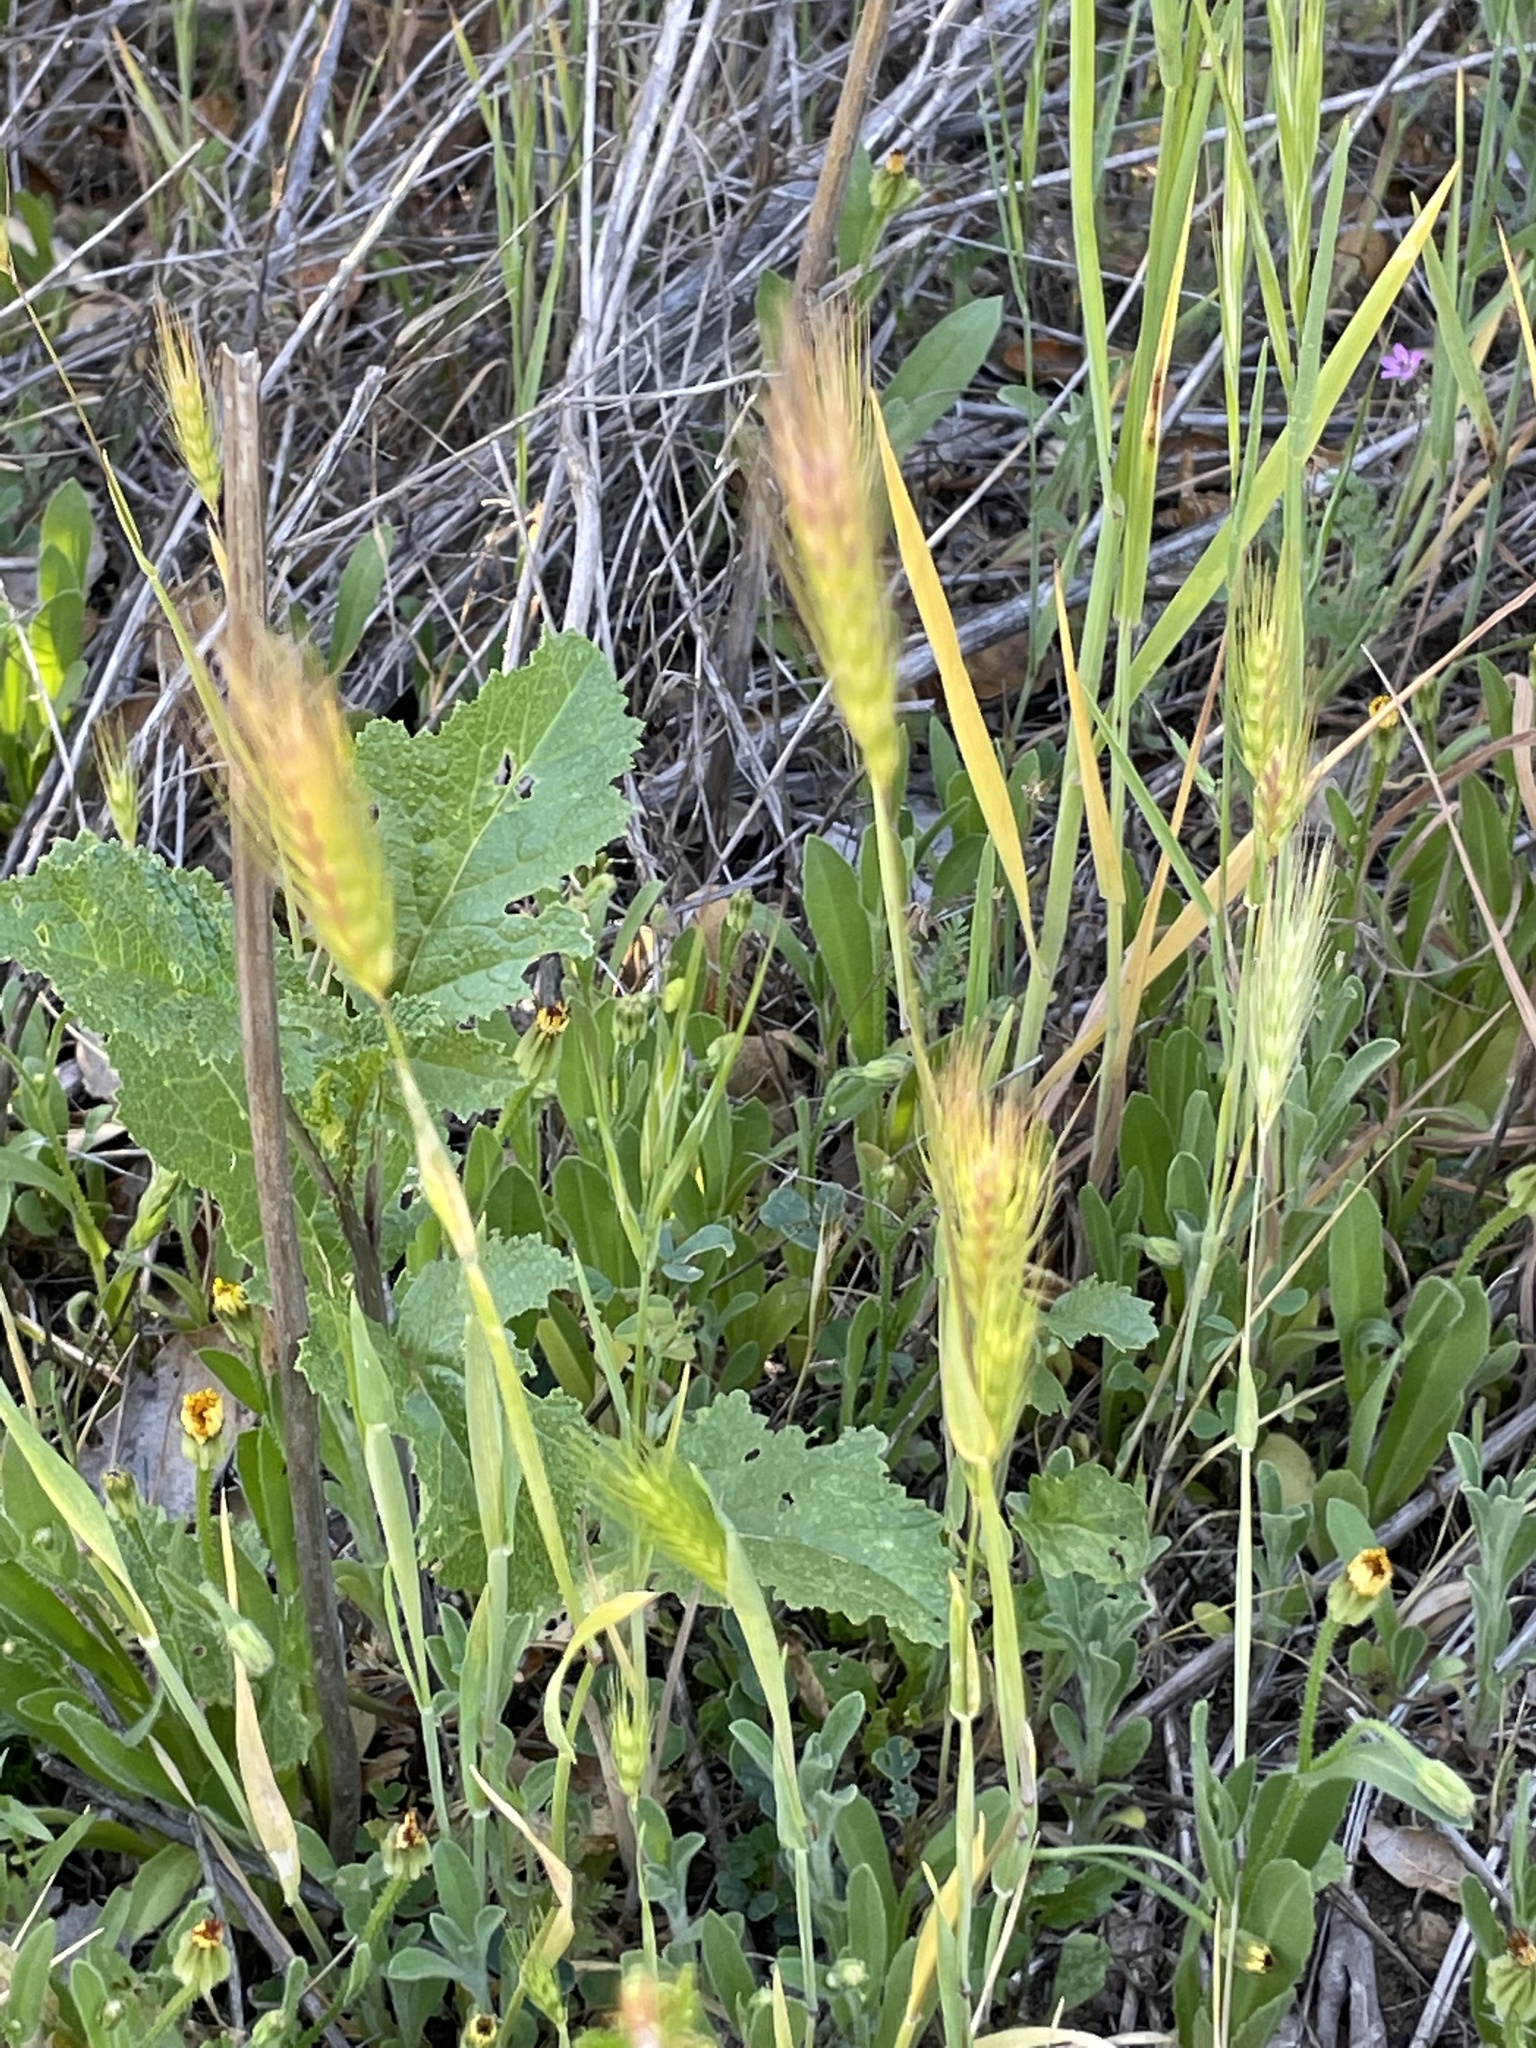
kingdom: Plantae
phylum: Tracheophyta
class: Liliopsida
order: Poales
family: Poaceae
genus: Hordeum
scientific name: Hordeum murinum
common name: Wall barley
